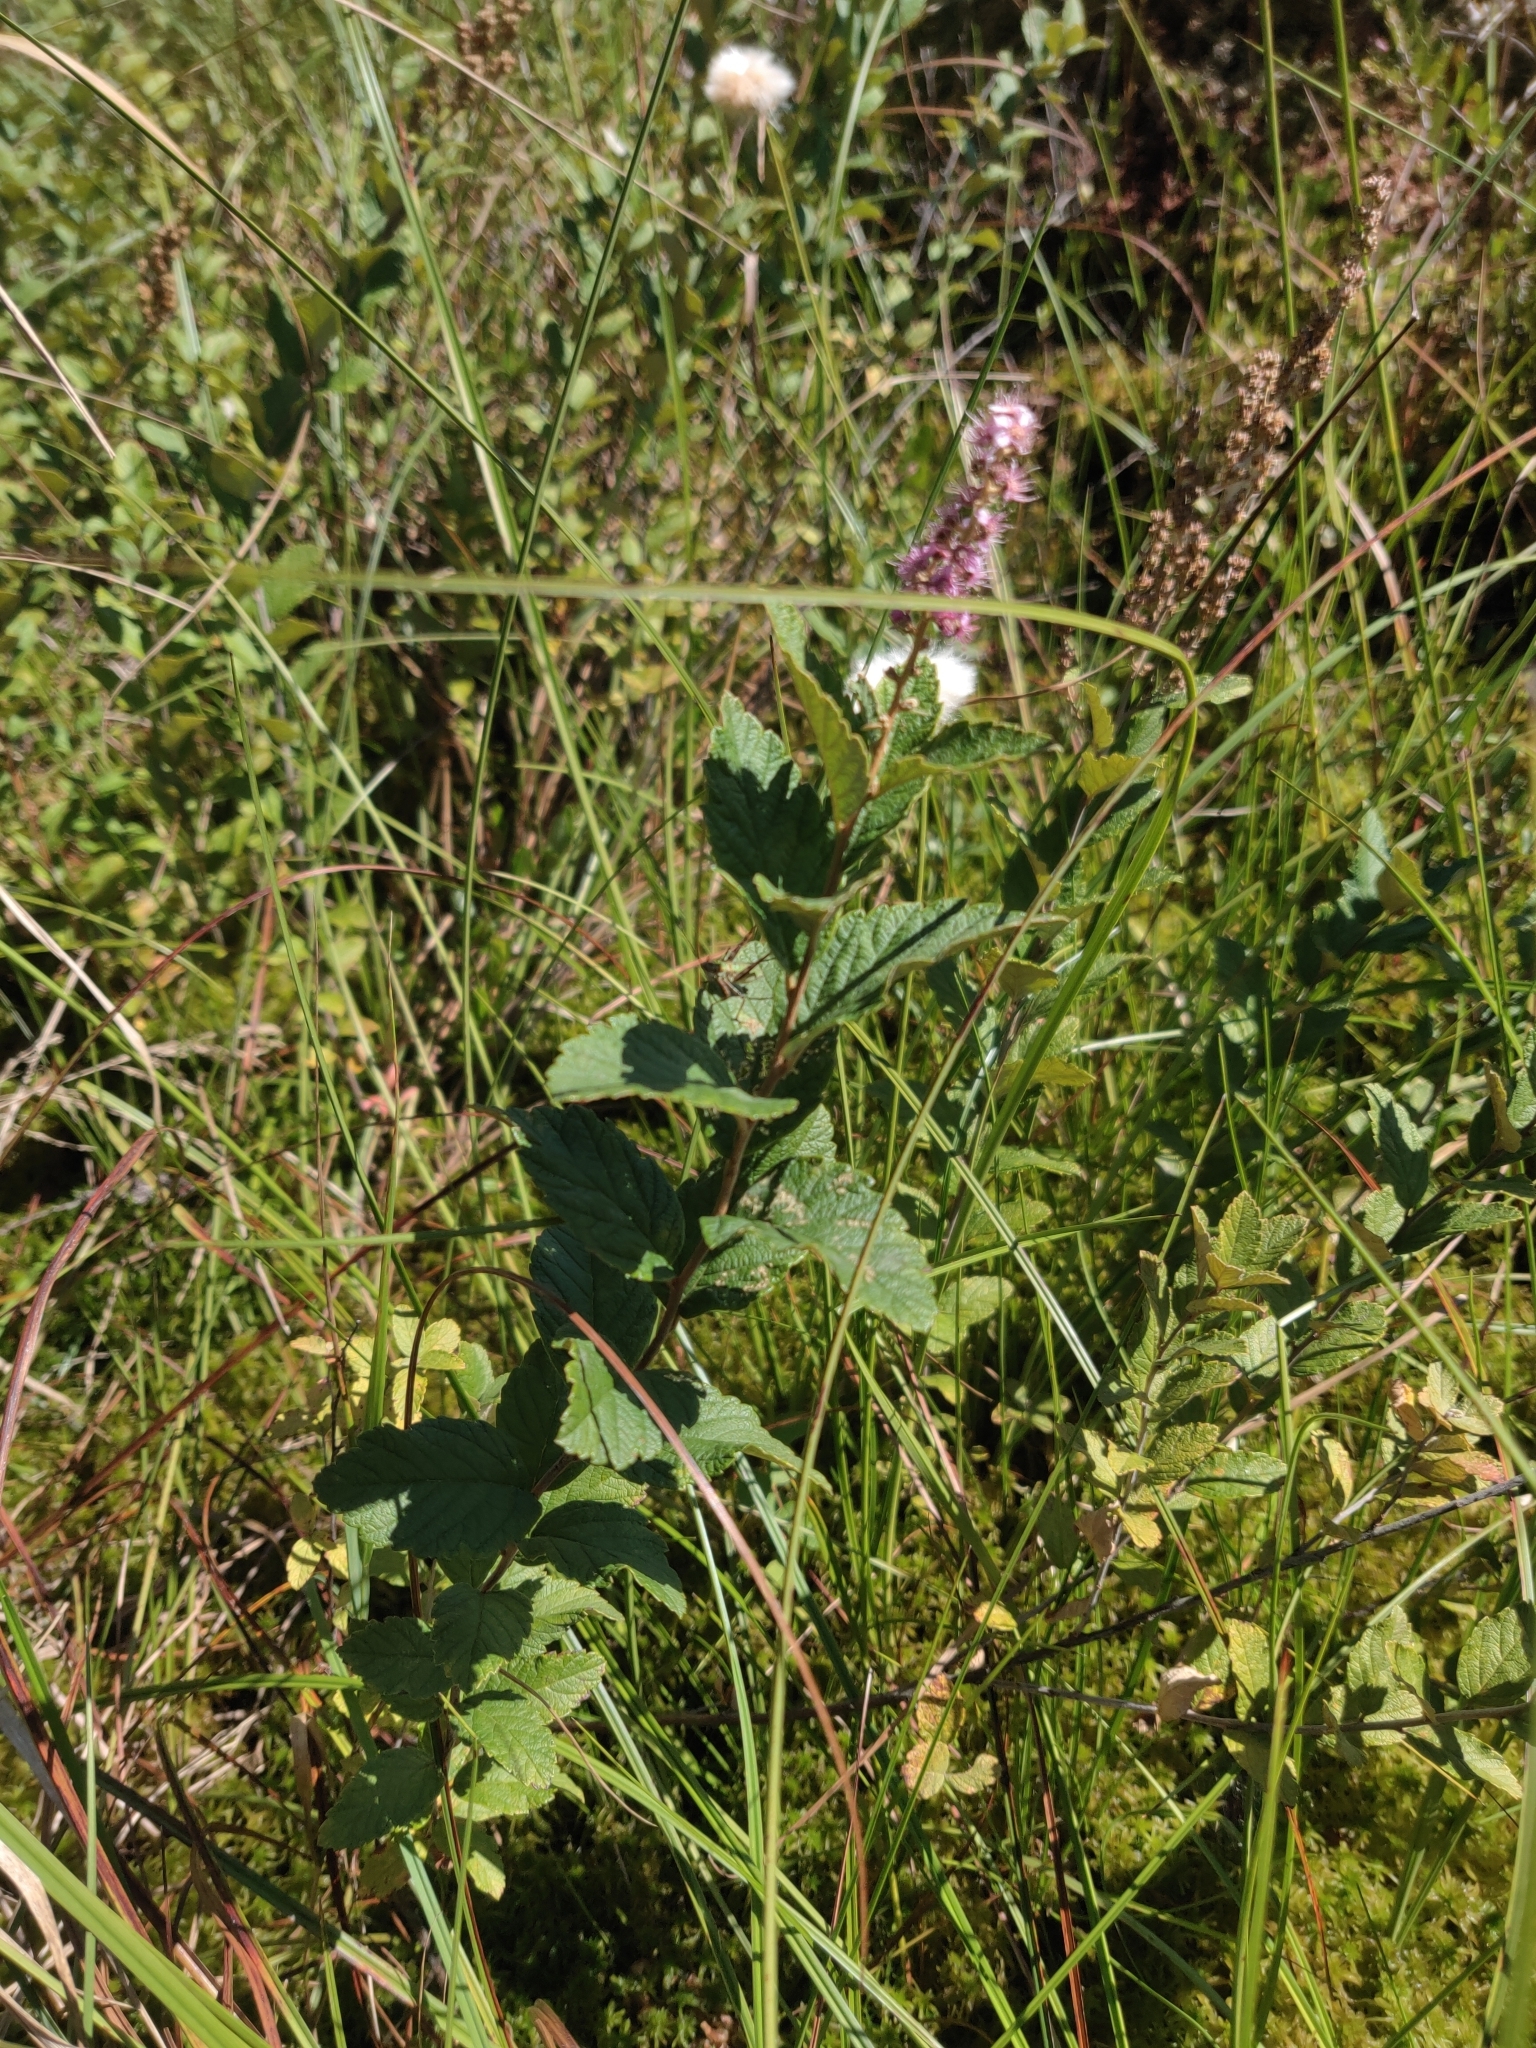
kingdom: Plantae
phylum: Tracheophyta
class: Magnoliopsida
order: Rosales
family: Rosaceae
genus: Spiraea
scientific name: Spiraea tomentosa
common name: Hardhack
